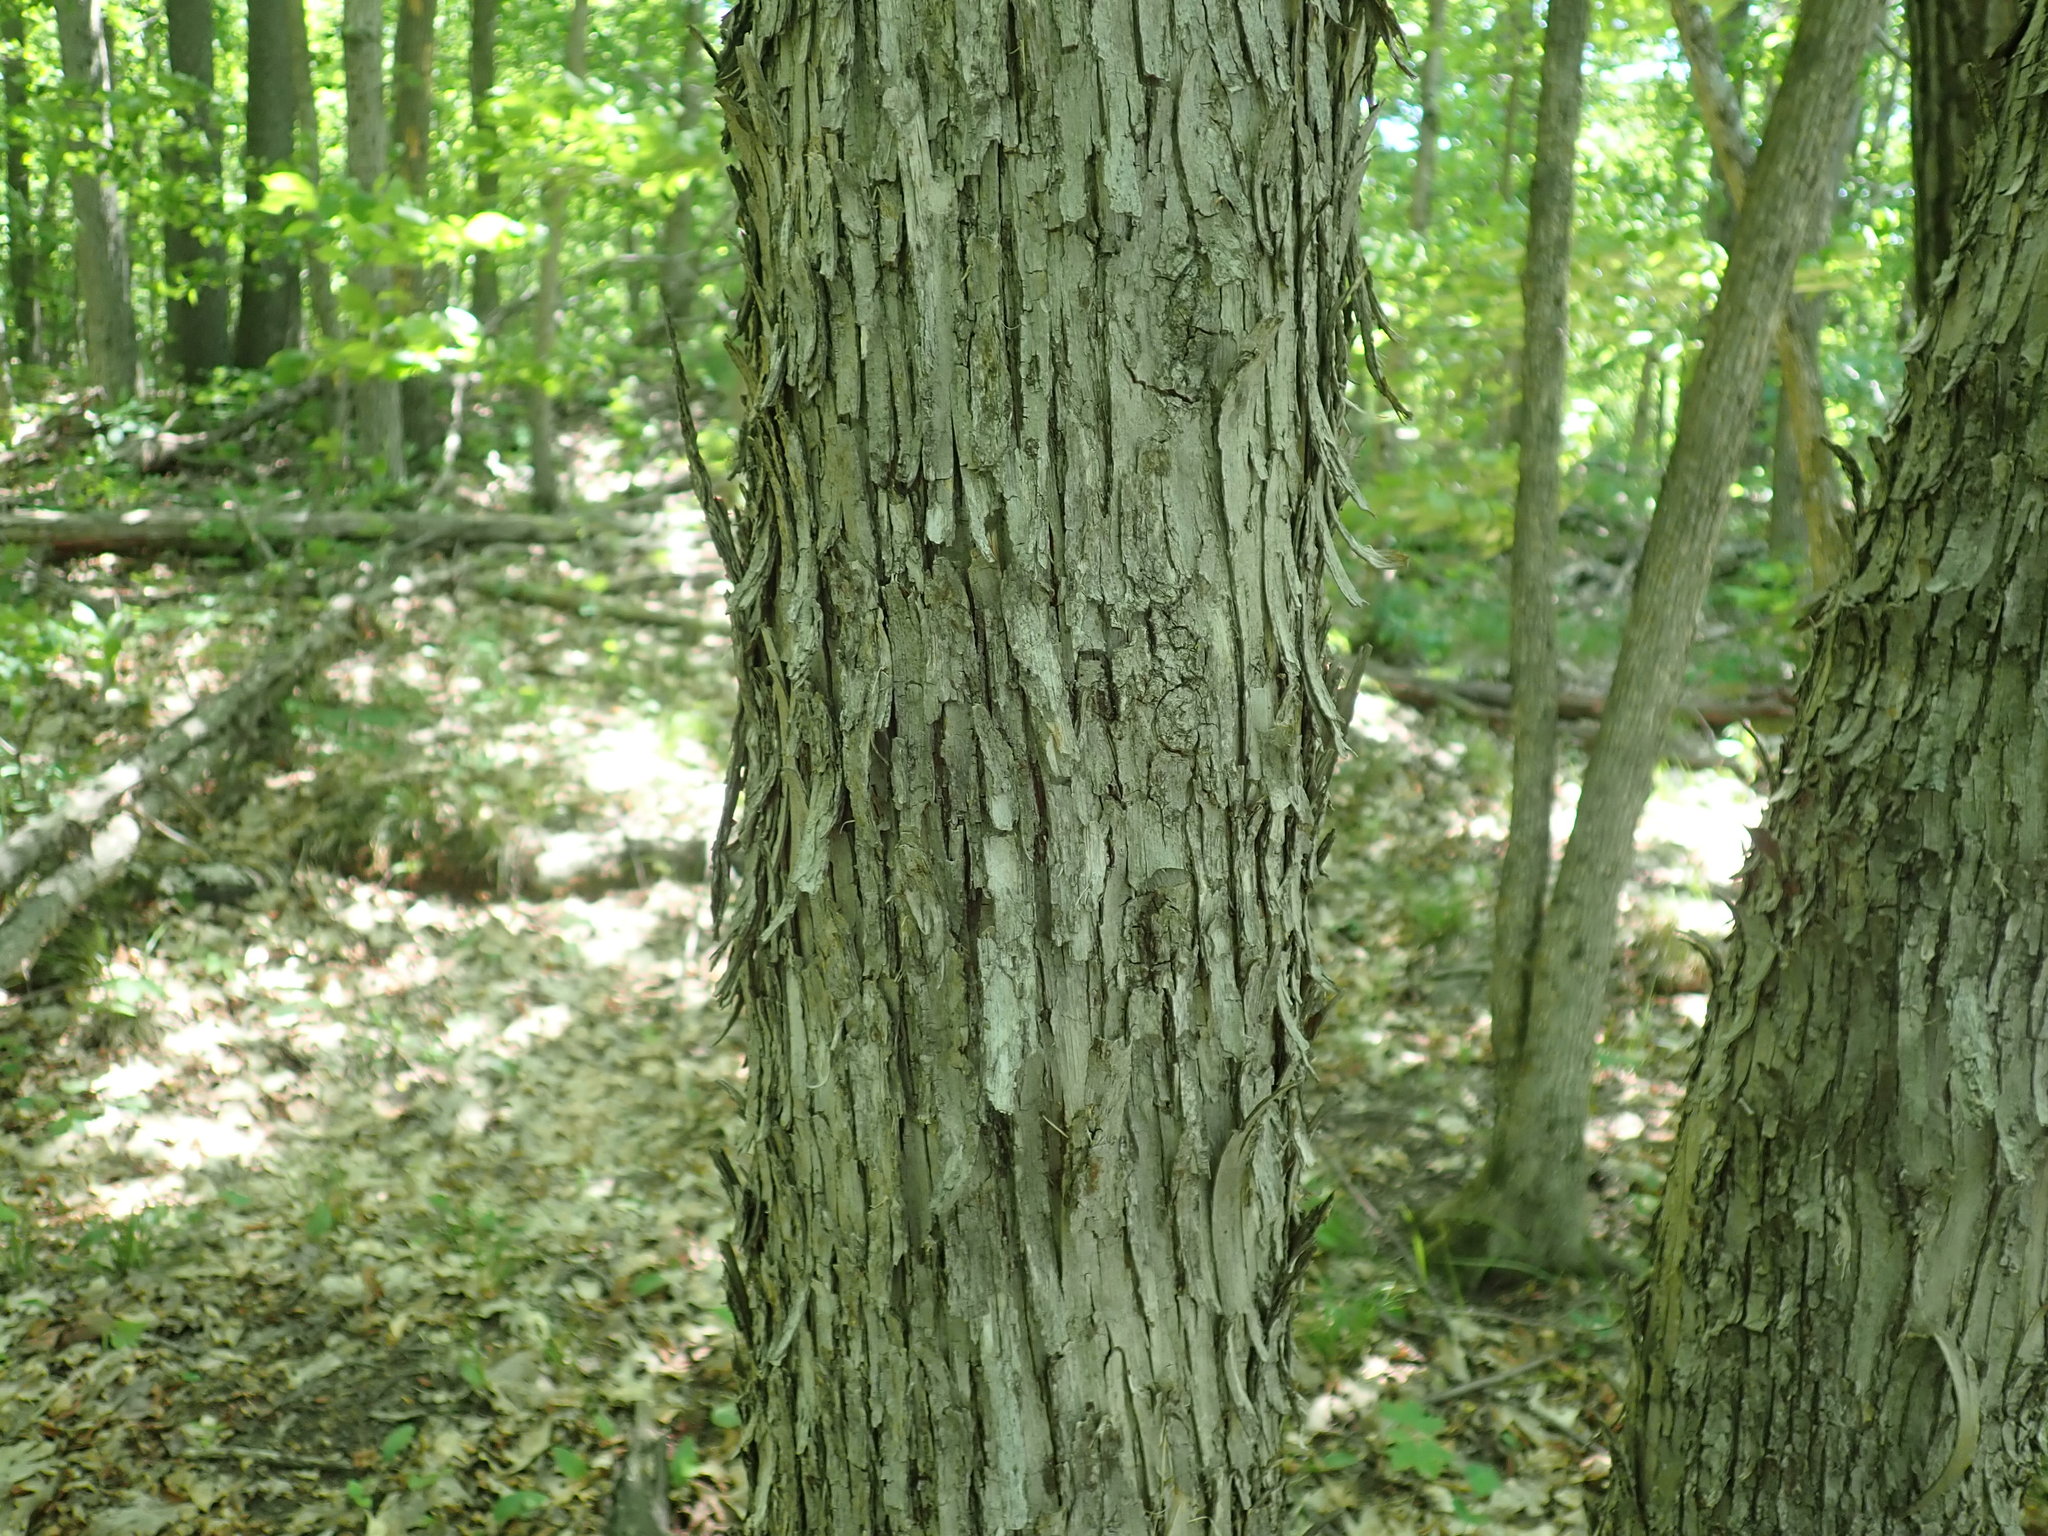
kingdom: Plantae
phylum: Tracheophyta
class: Magnoliopsida
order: Fagales
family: Betulaceae
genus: Ostrya
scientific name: Ostrya virginiana
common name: Ironwood
